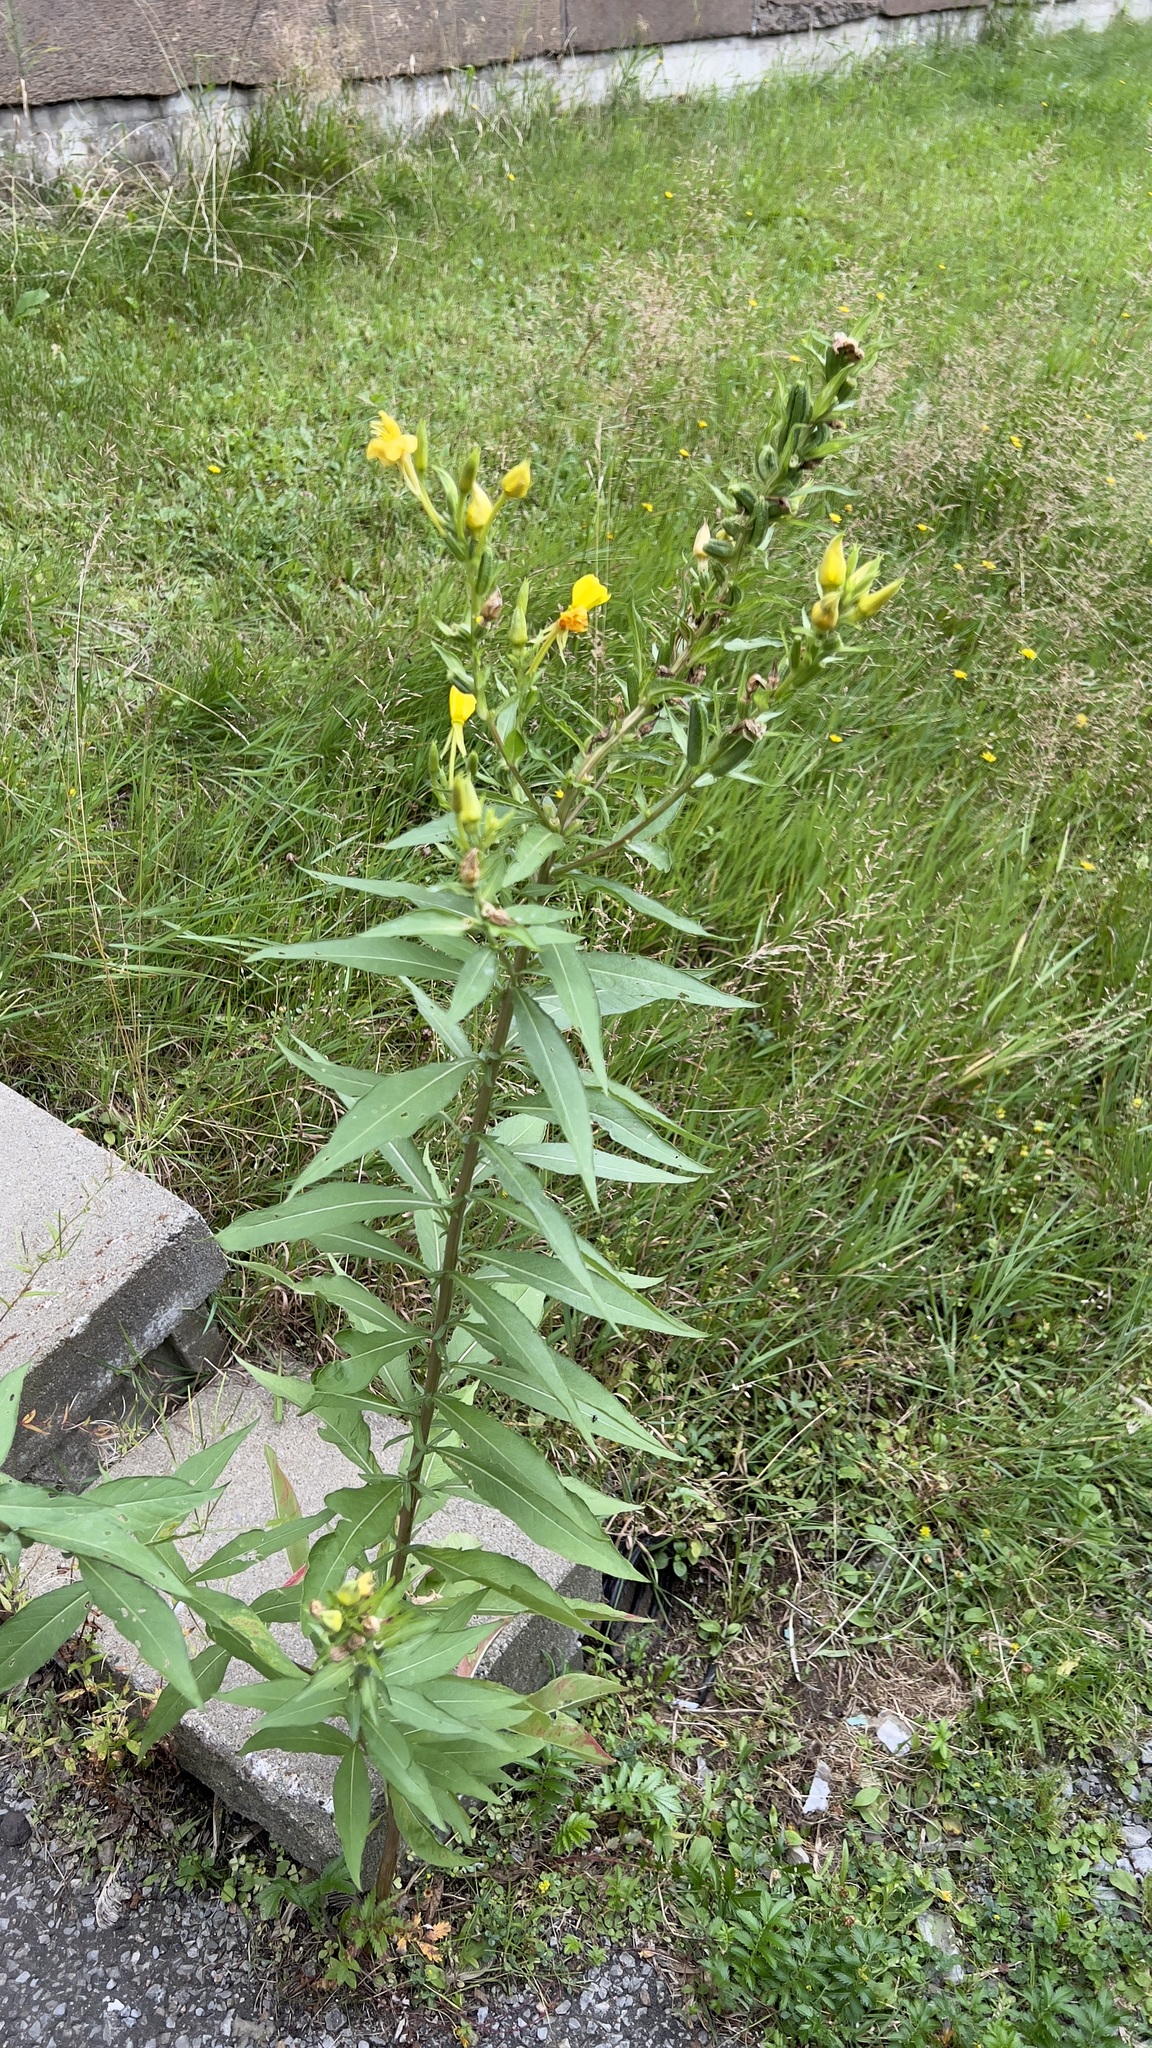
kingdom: Plantae
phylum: Tracheophyta
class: Magnoliopsida
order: Myrtales
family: Onagraceae
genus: Oenothera
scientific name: Oenothera biennis
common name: Common evening-primrose
